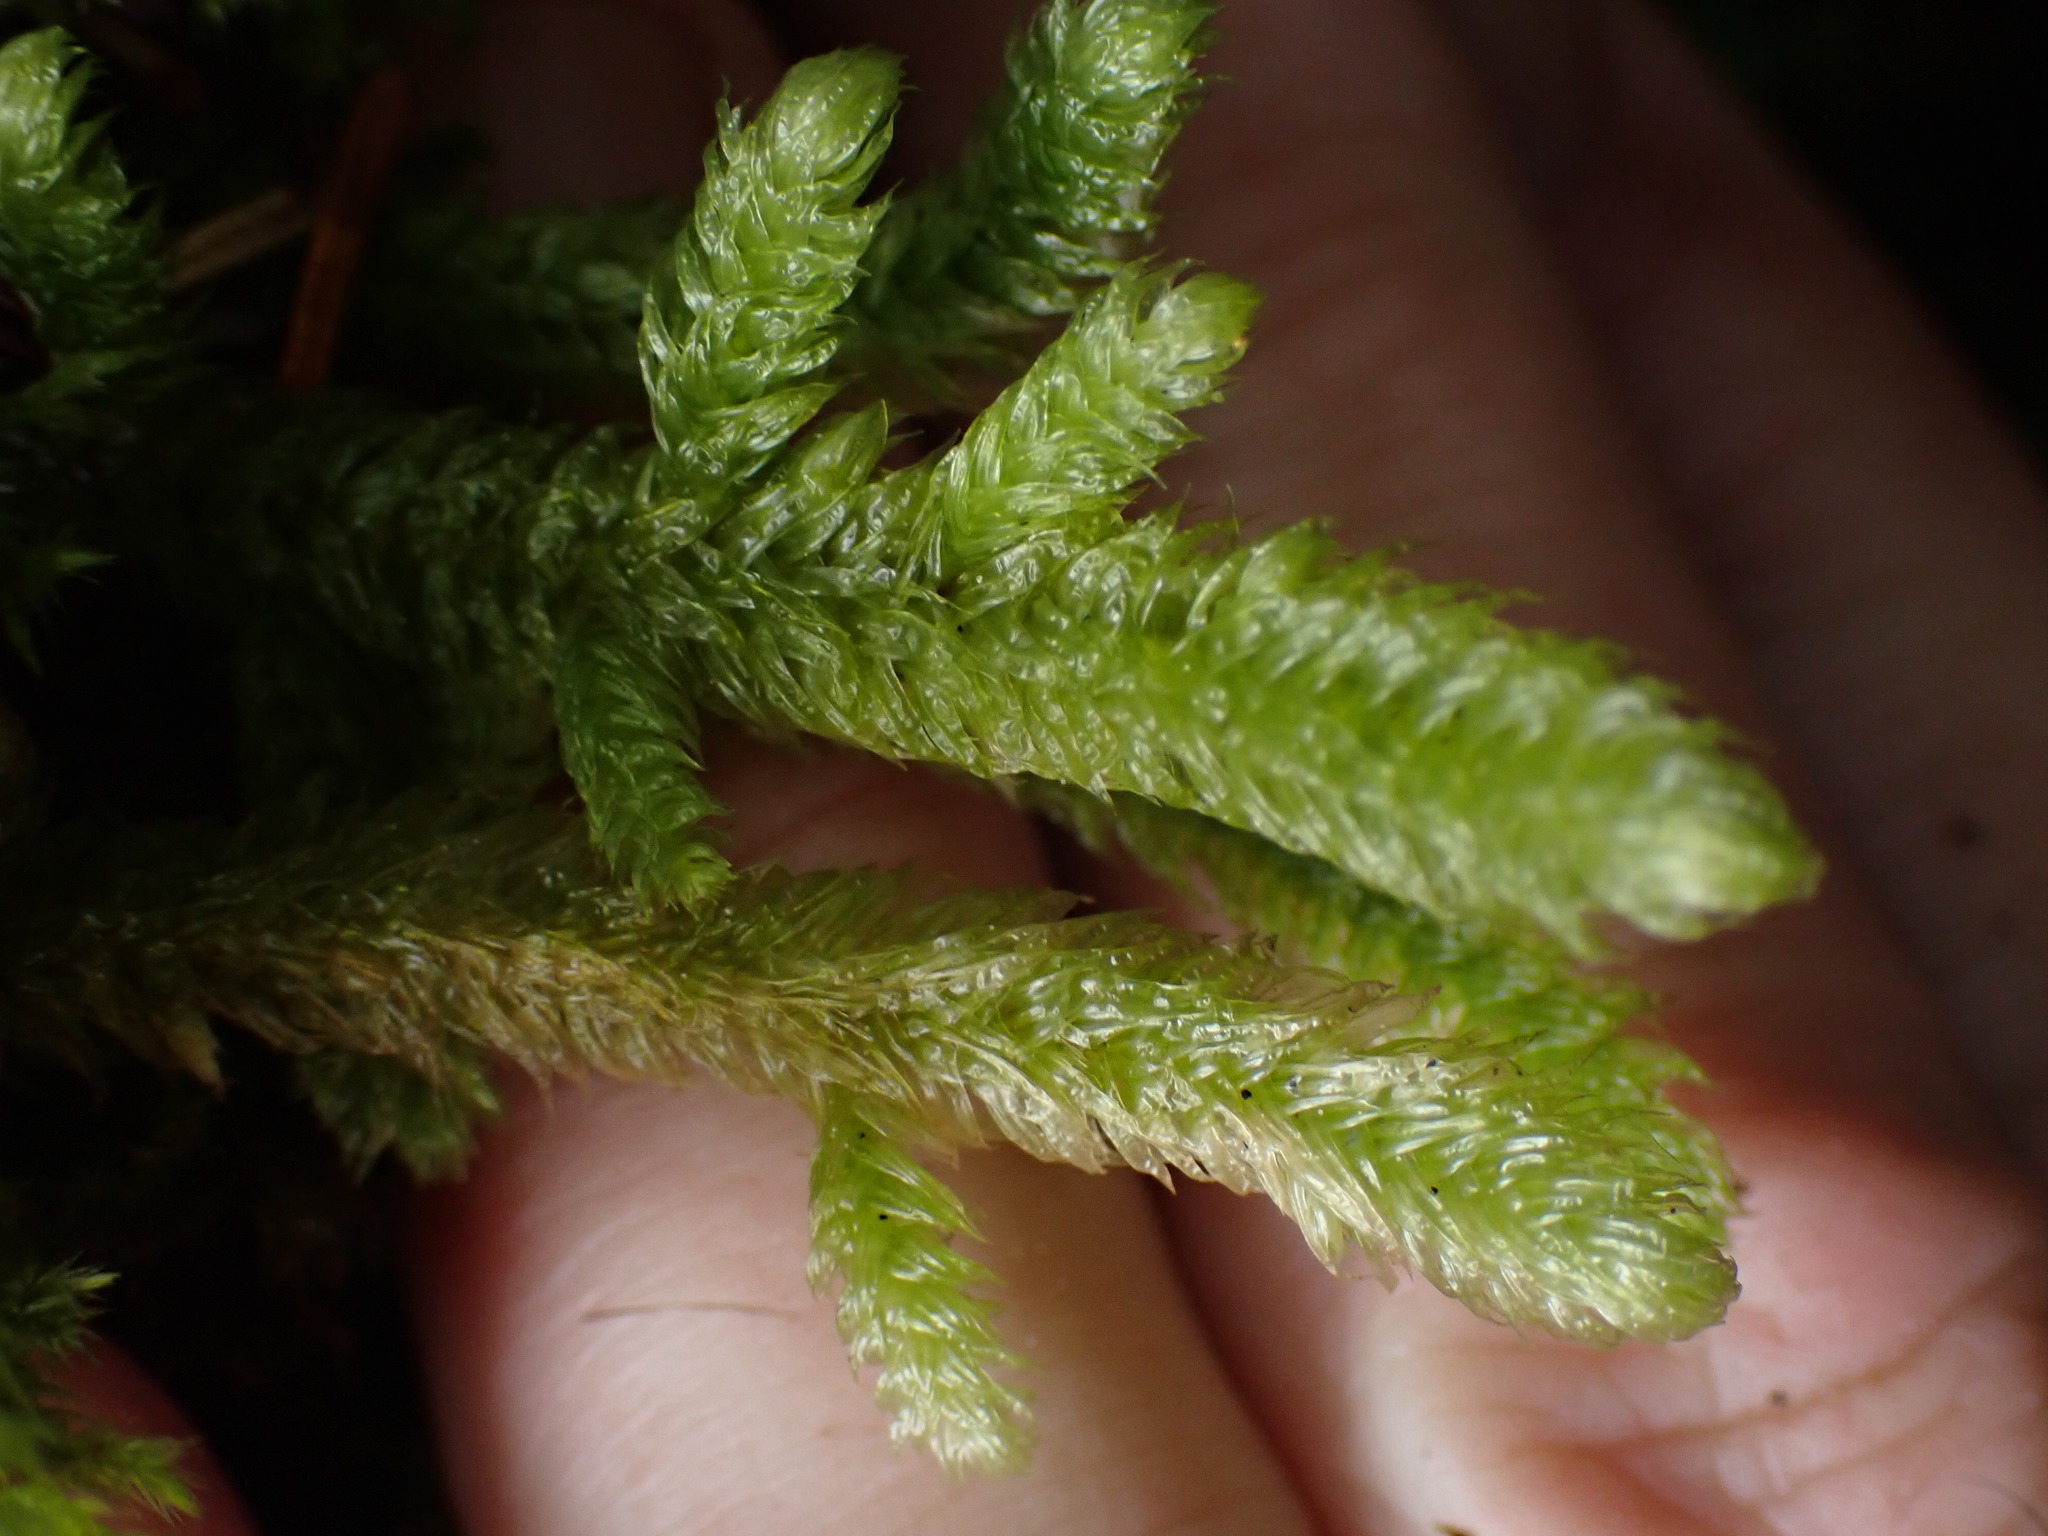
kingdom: Plantae
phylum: Bryophyta
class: Bryopsida
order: Hypnales
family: Hylocomiaceae
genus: Rhytidiopsis
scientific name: Rhytidiopsis robusta
